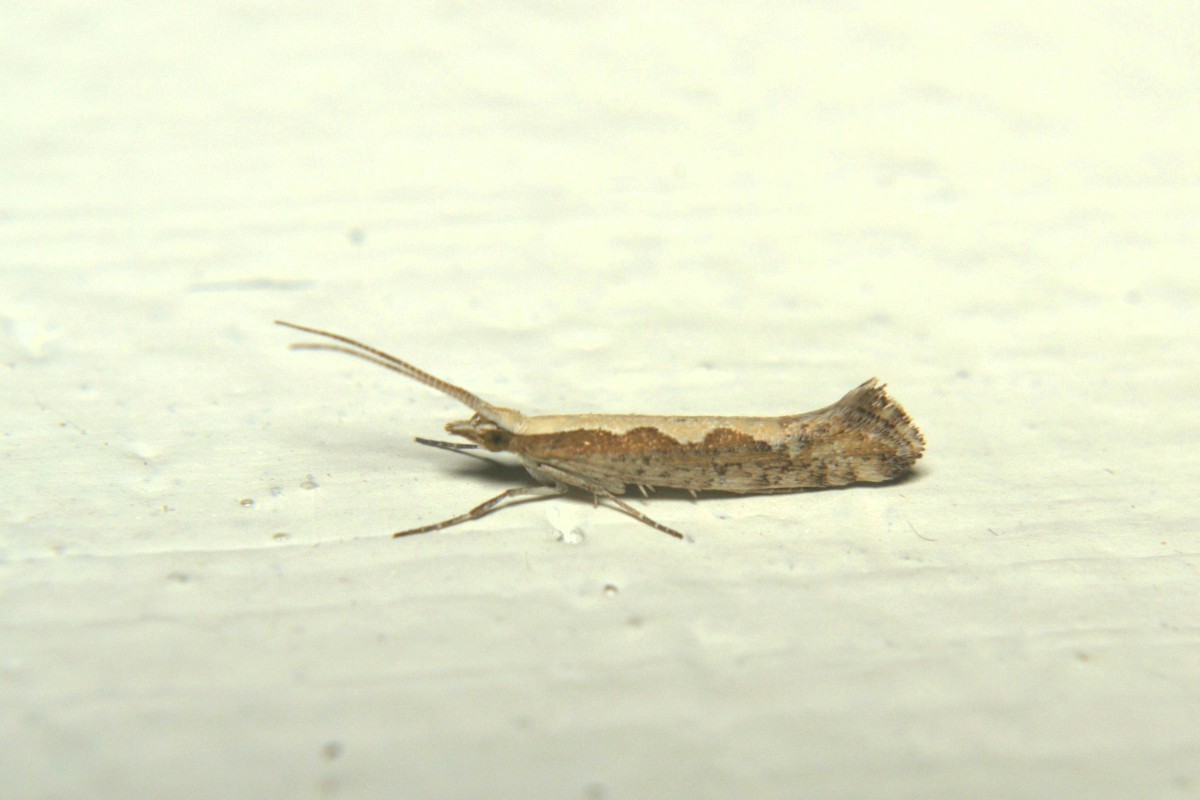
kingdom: Animalia
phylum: Arthropoda
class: Insecta
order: Lepidoptera
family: Plutellidae
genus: Plutella
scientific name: Plutella xylostella
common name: Diamond-back moth
